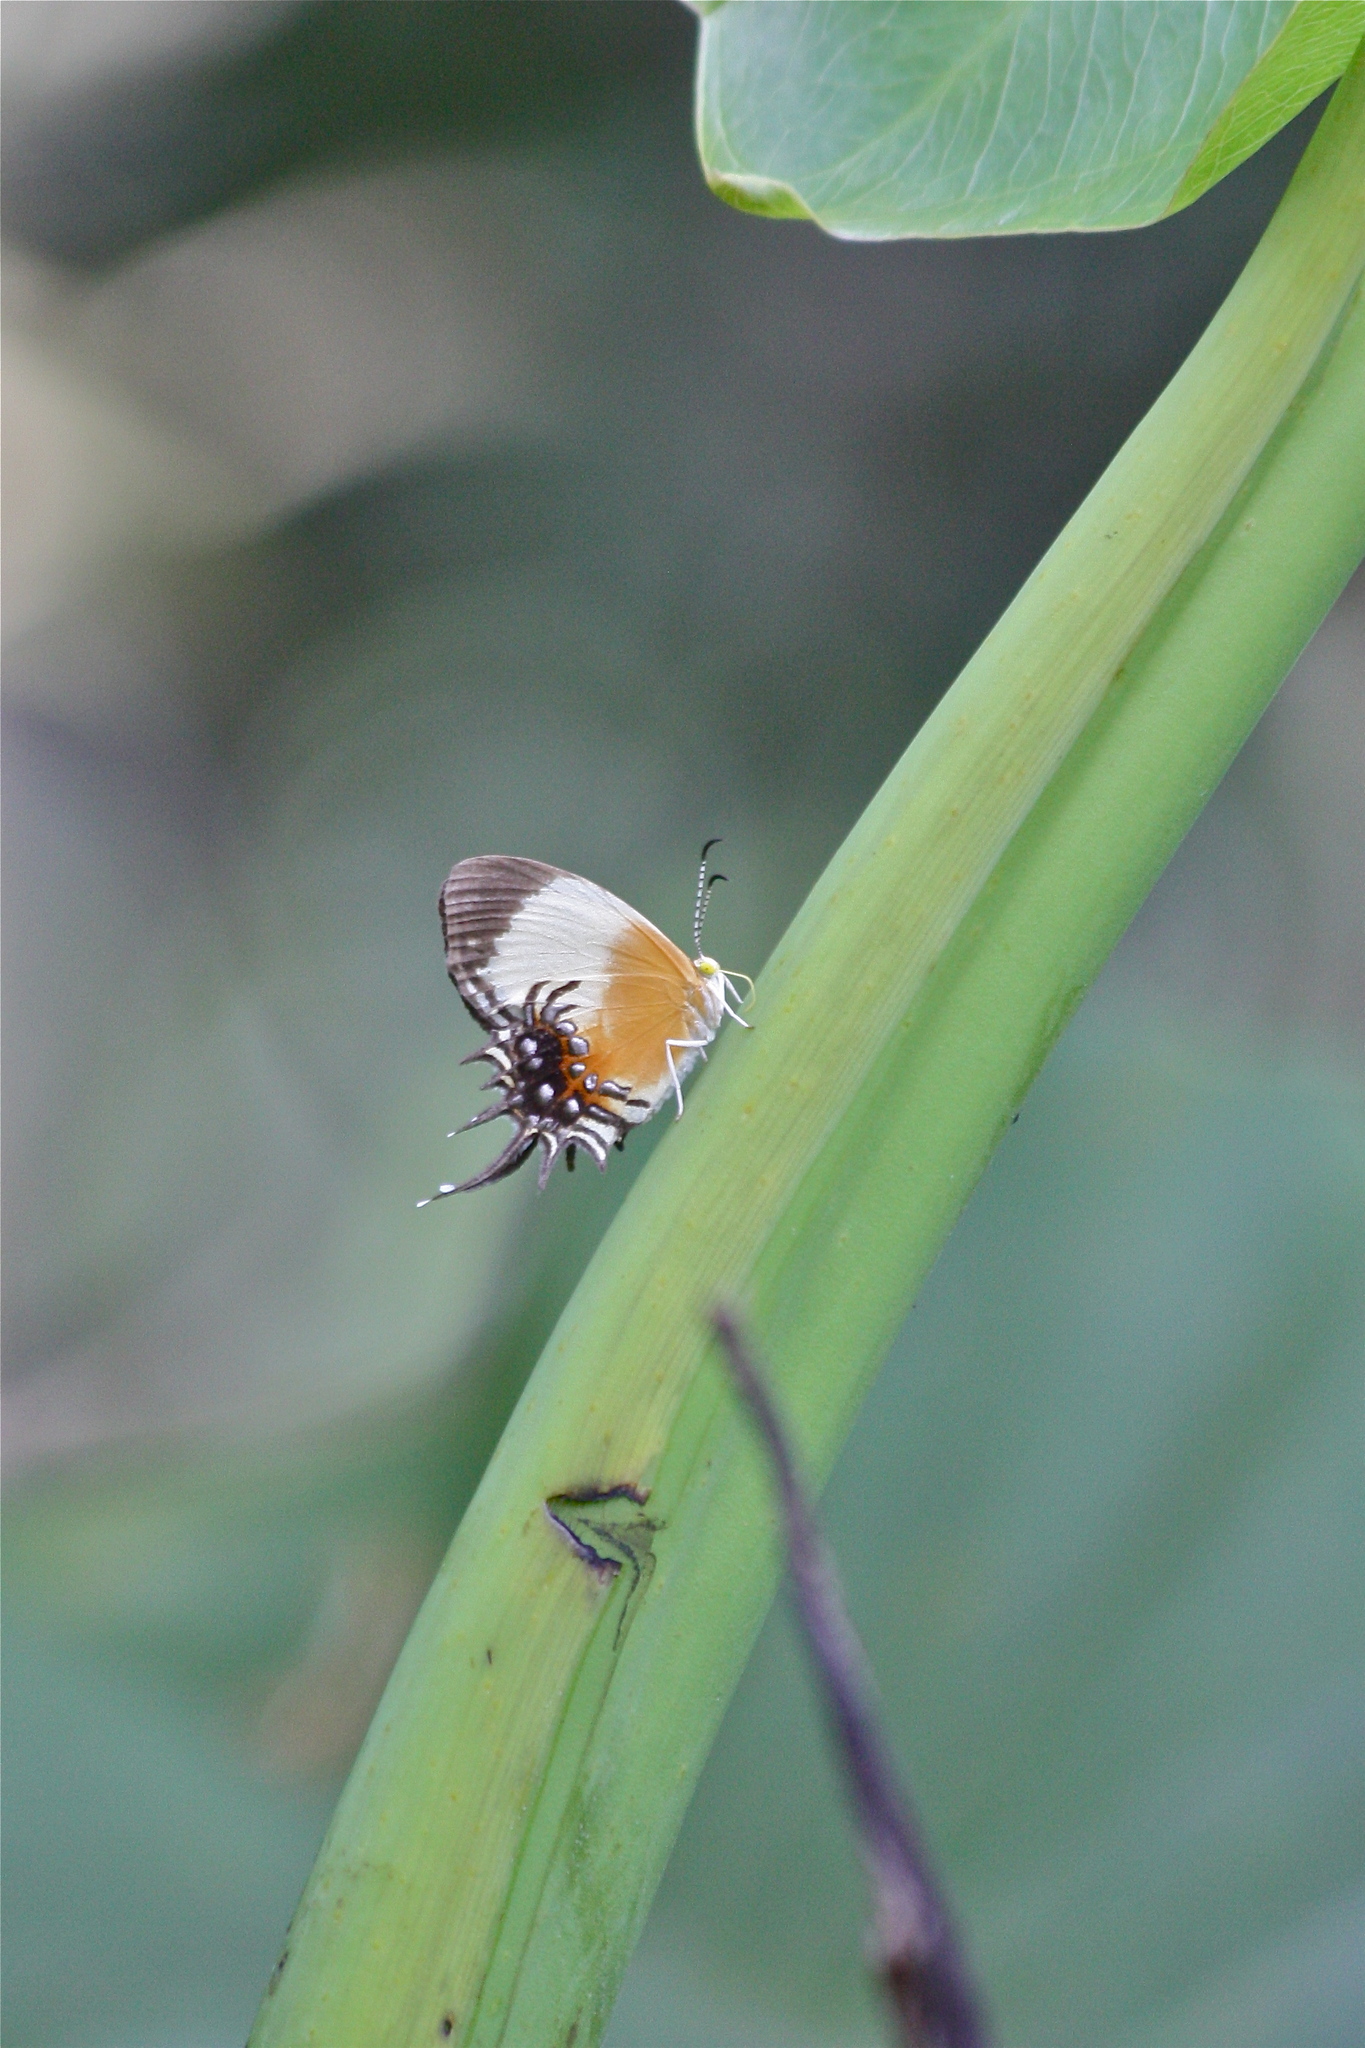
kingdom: Animalia
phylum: Arthropoda
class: Insecta
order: Lepidoptera
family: Riodinidae
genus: Helicopis
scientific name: Helicopis gnidus
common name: Gnidus metalmark
